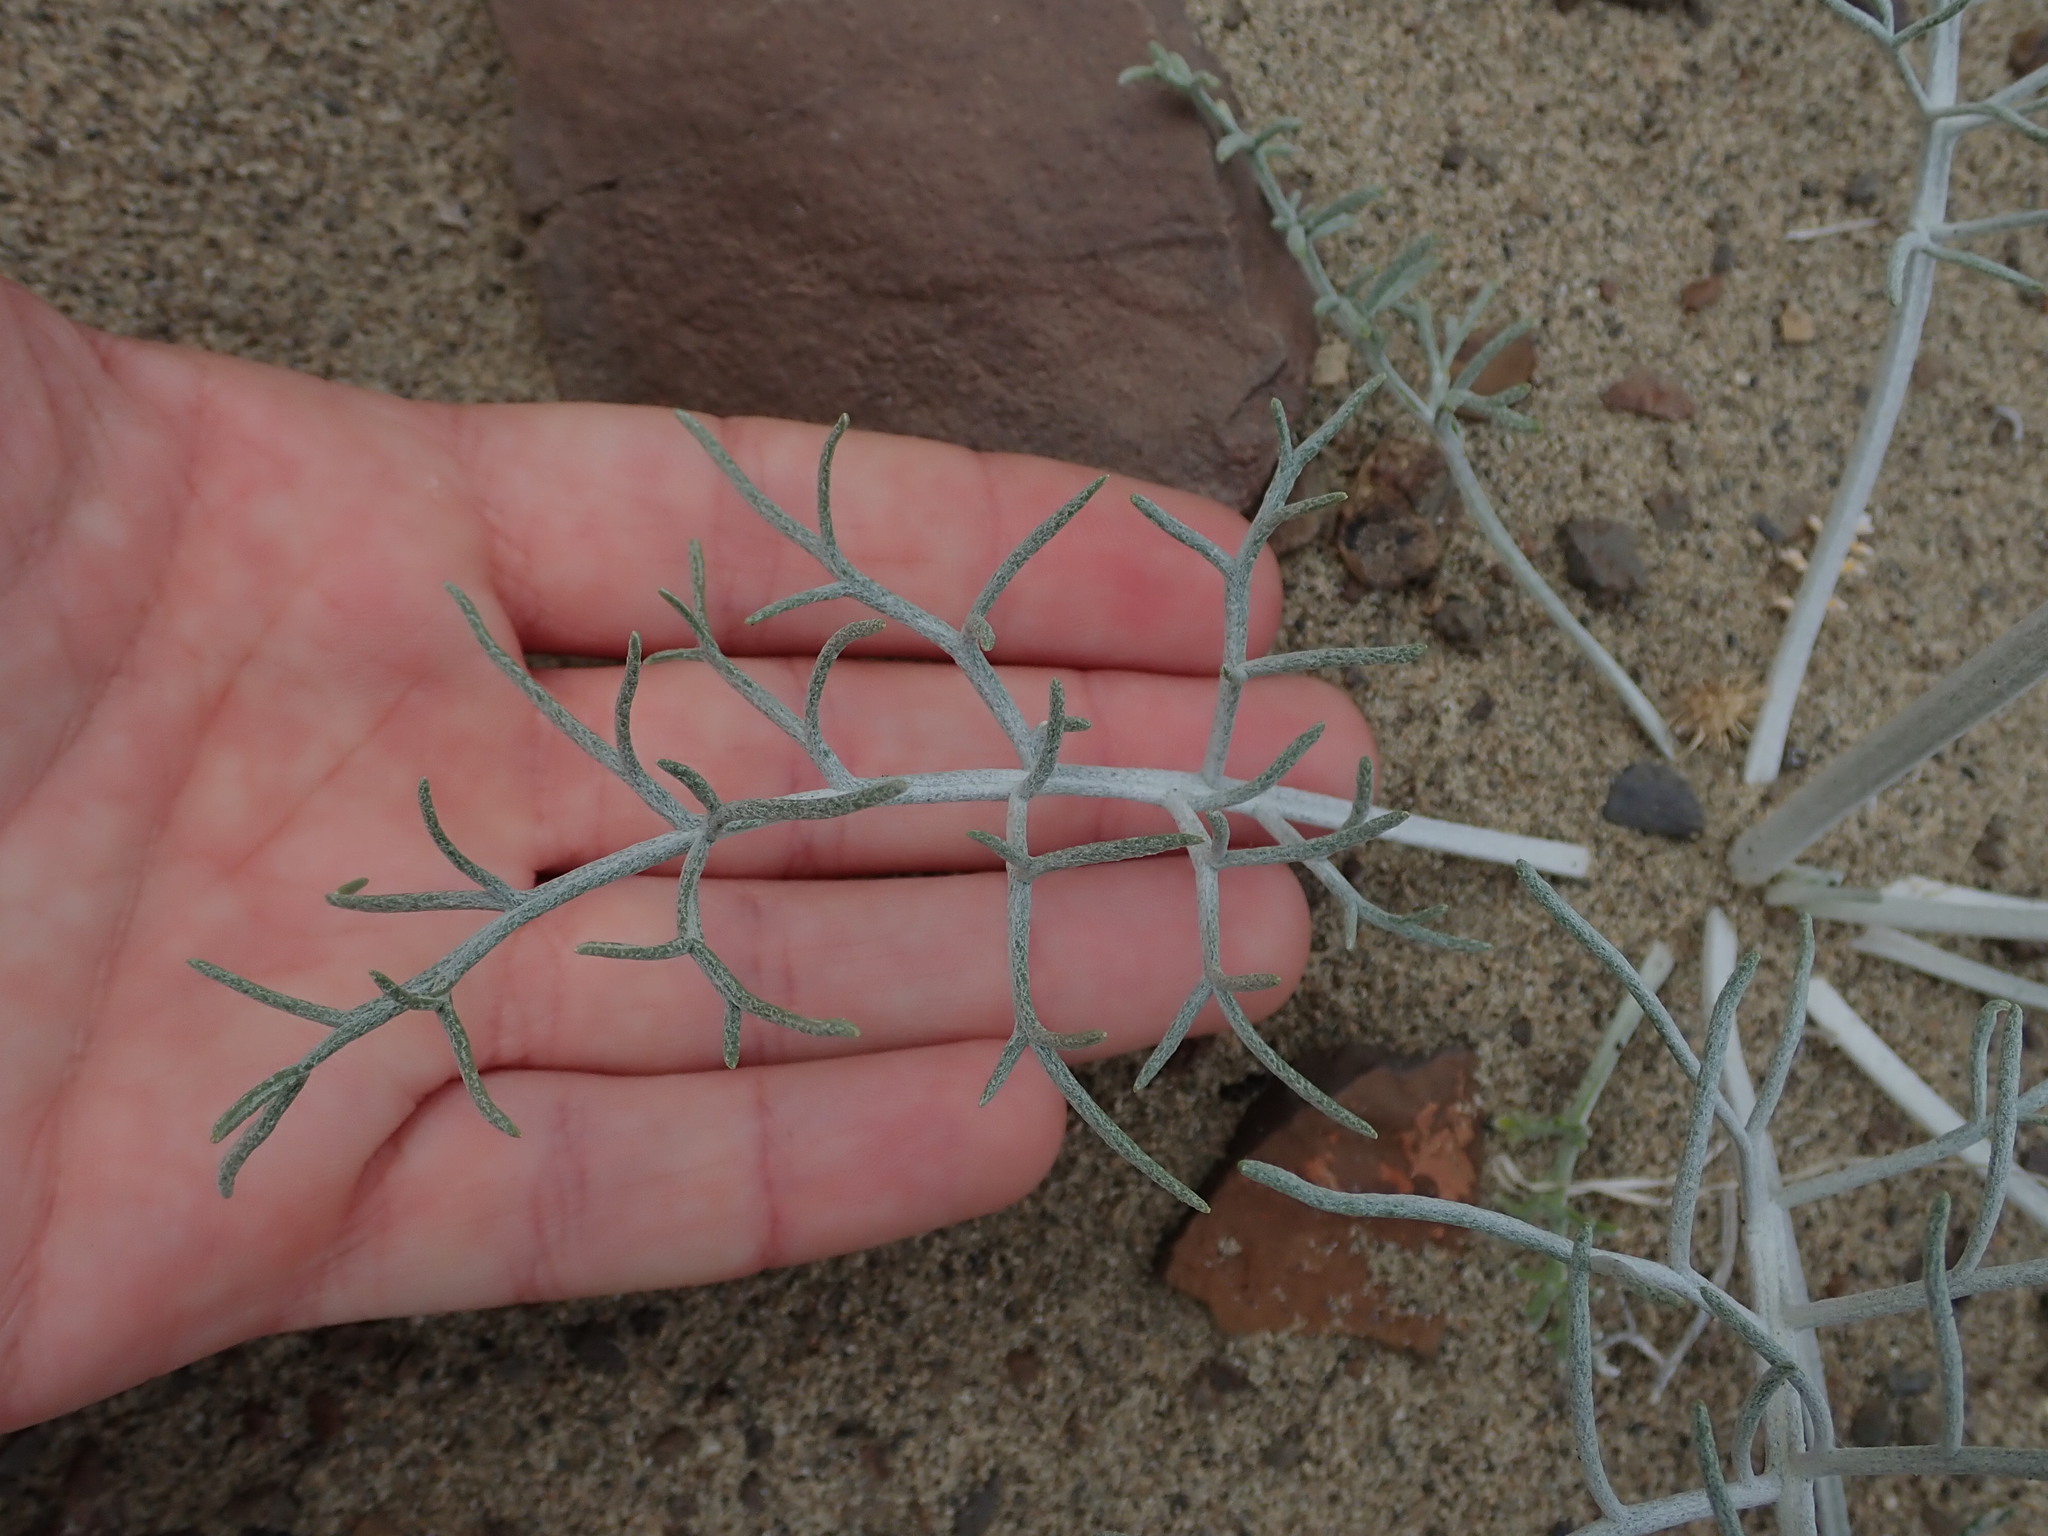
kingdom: Plantae
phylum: Tracheophyta
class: Magnoliopsida
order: Asterales
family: Asteraceae
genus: Hymenopappus
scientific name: Hymenopappus filifolius
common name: Columbia cutleaf
